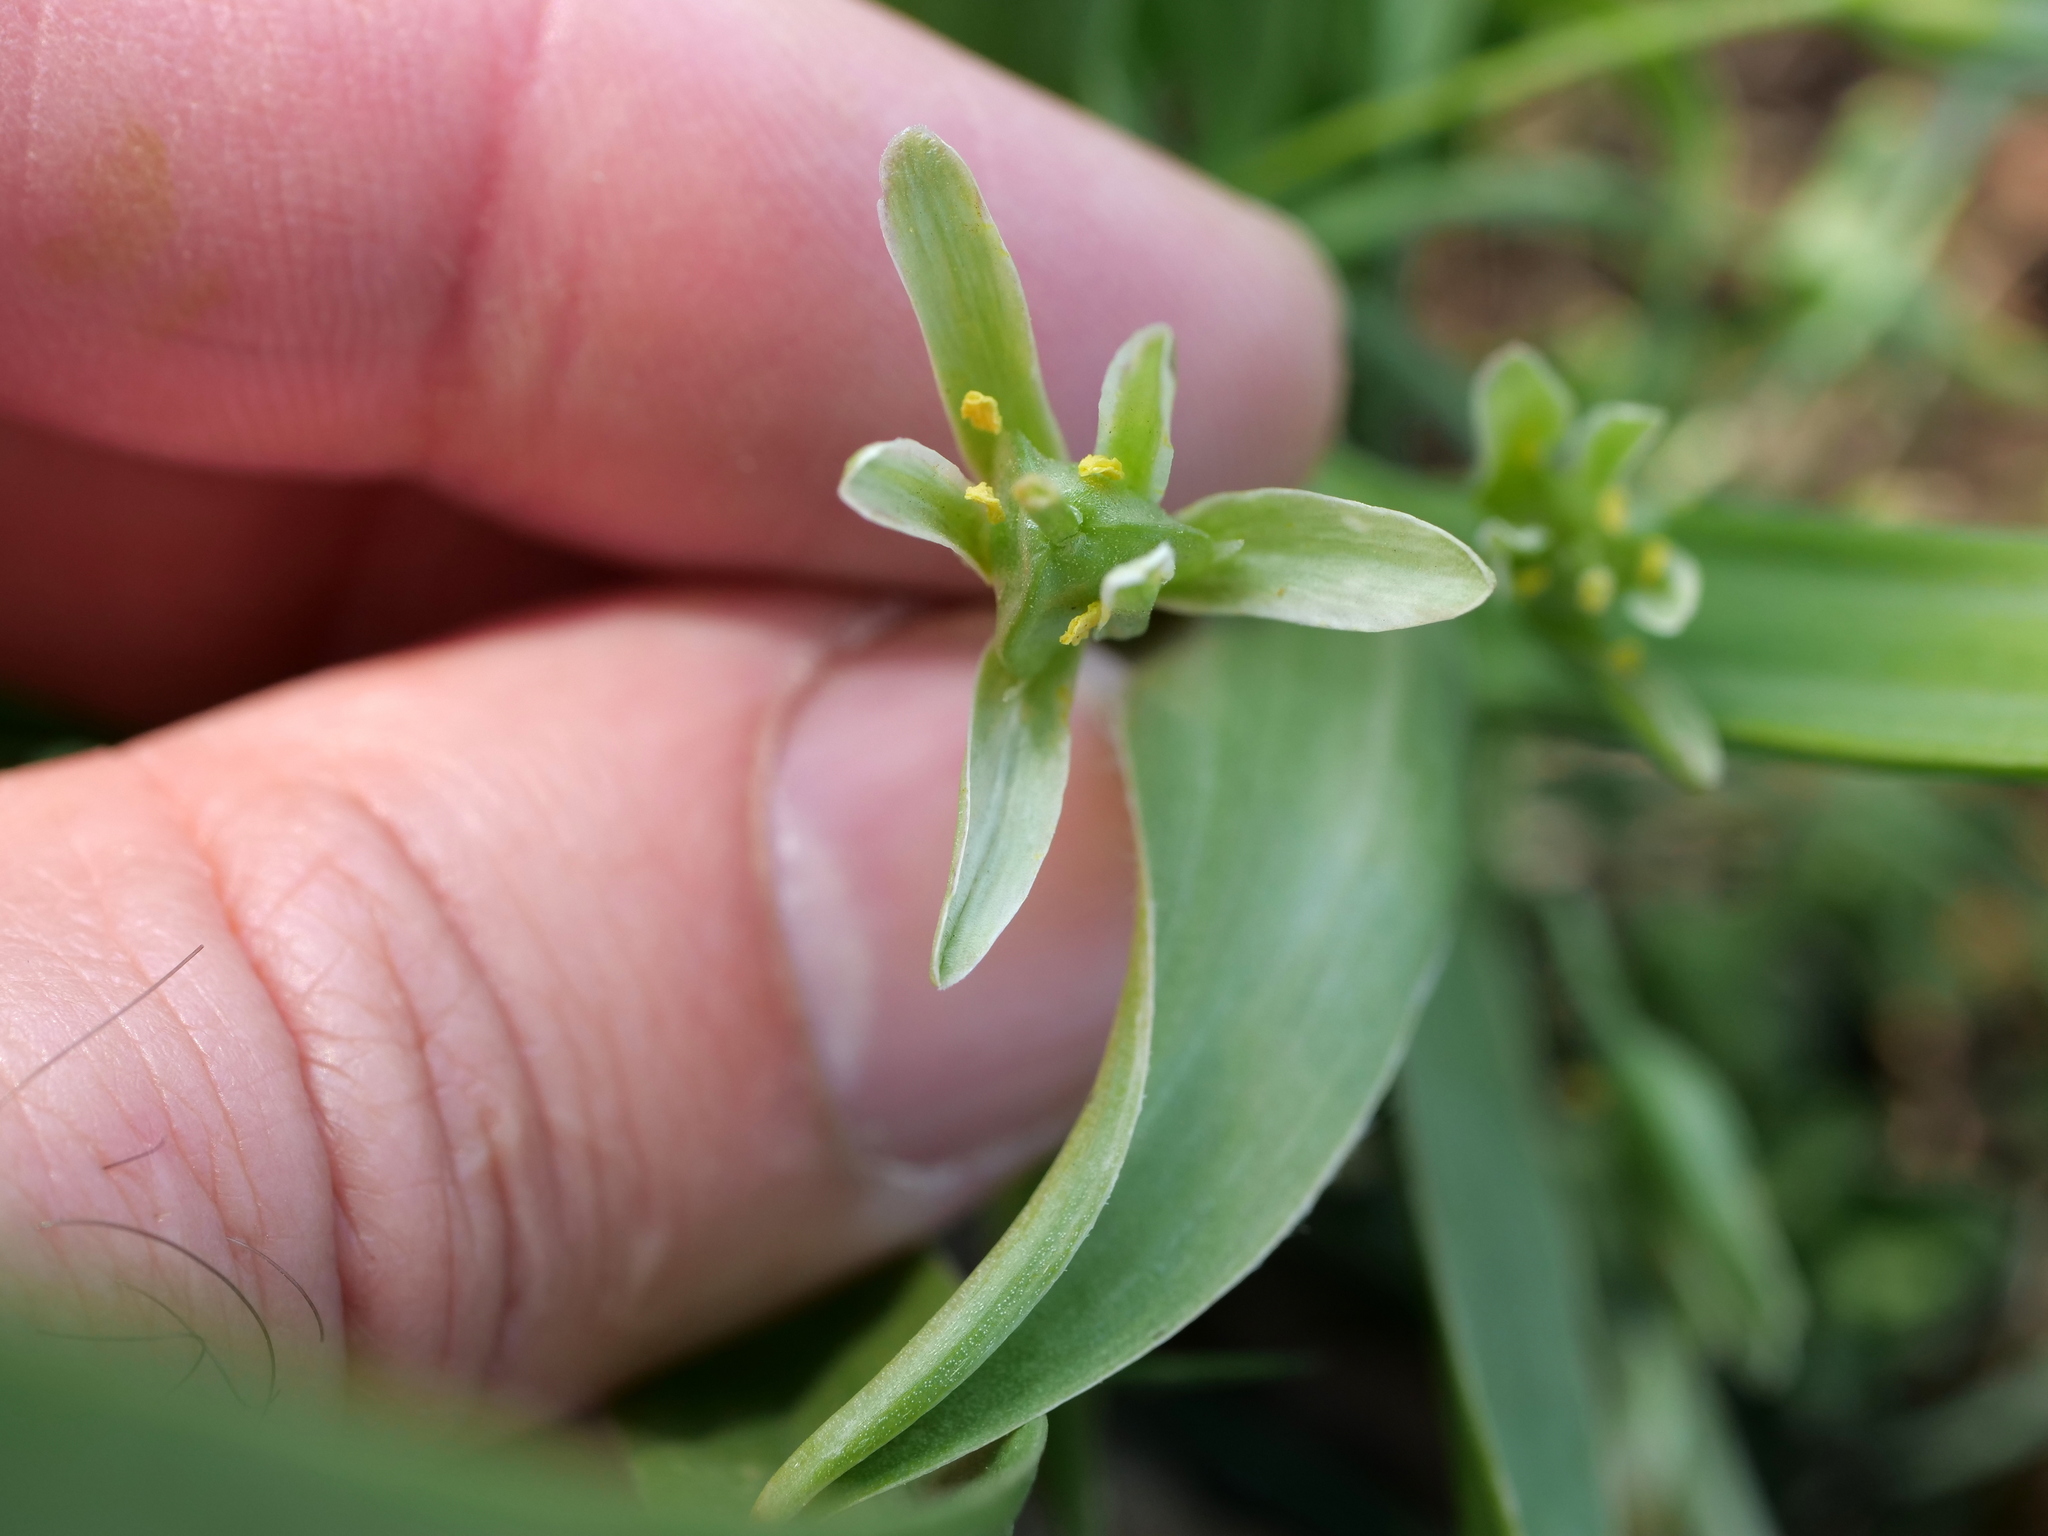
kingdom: Plantae
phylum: Tracheophyta
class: Liliopsida
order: Liliales
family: Liliaceae
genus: Gagea
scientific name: Gagea lutea
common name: Yellow star-of-bethlehem
